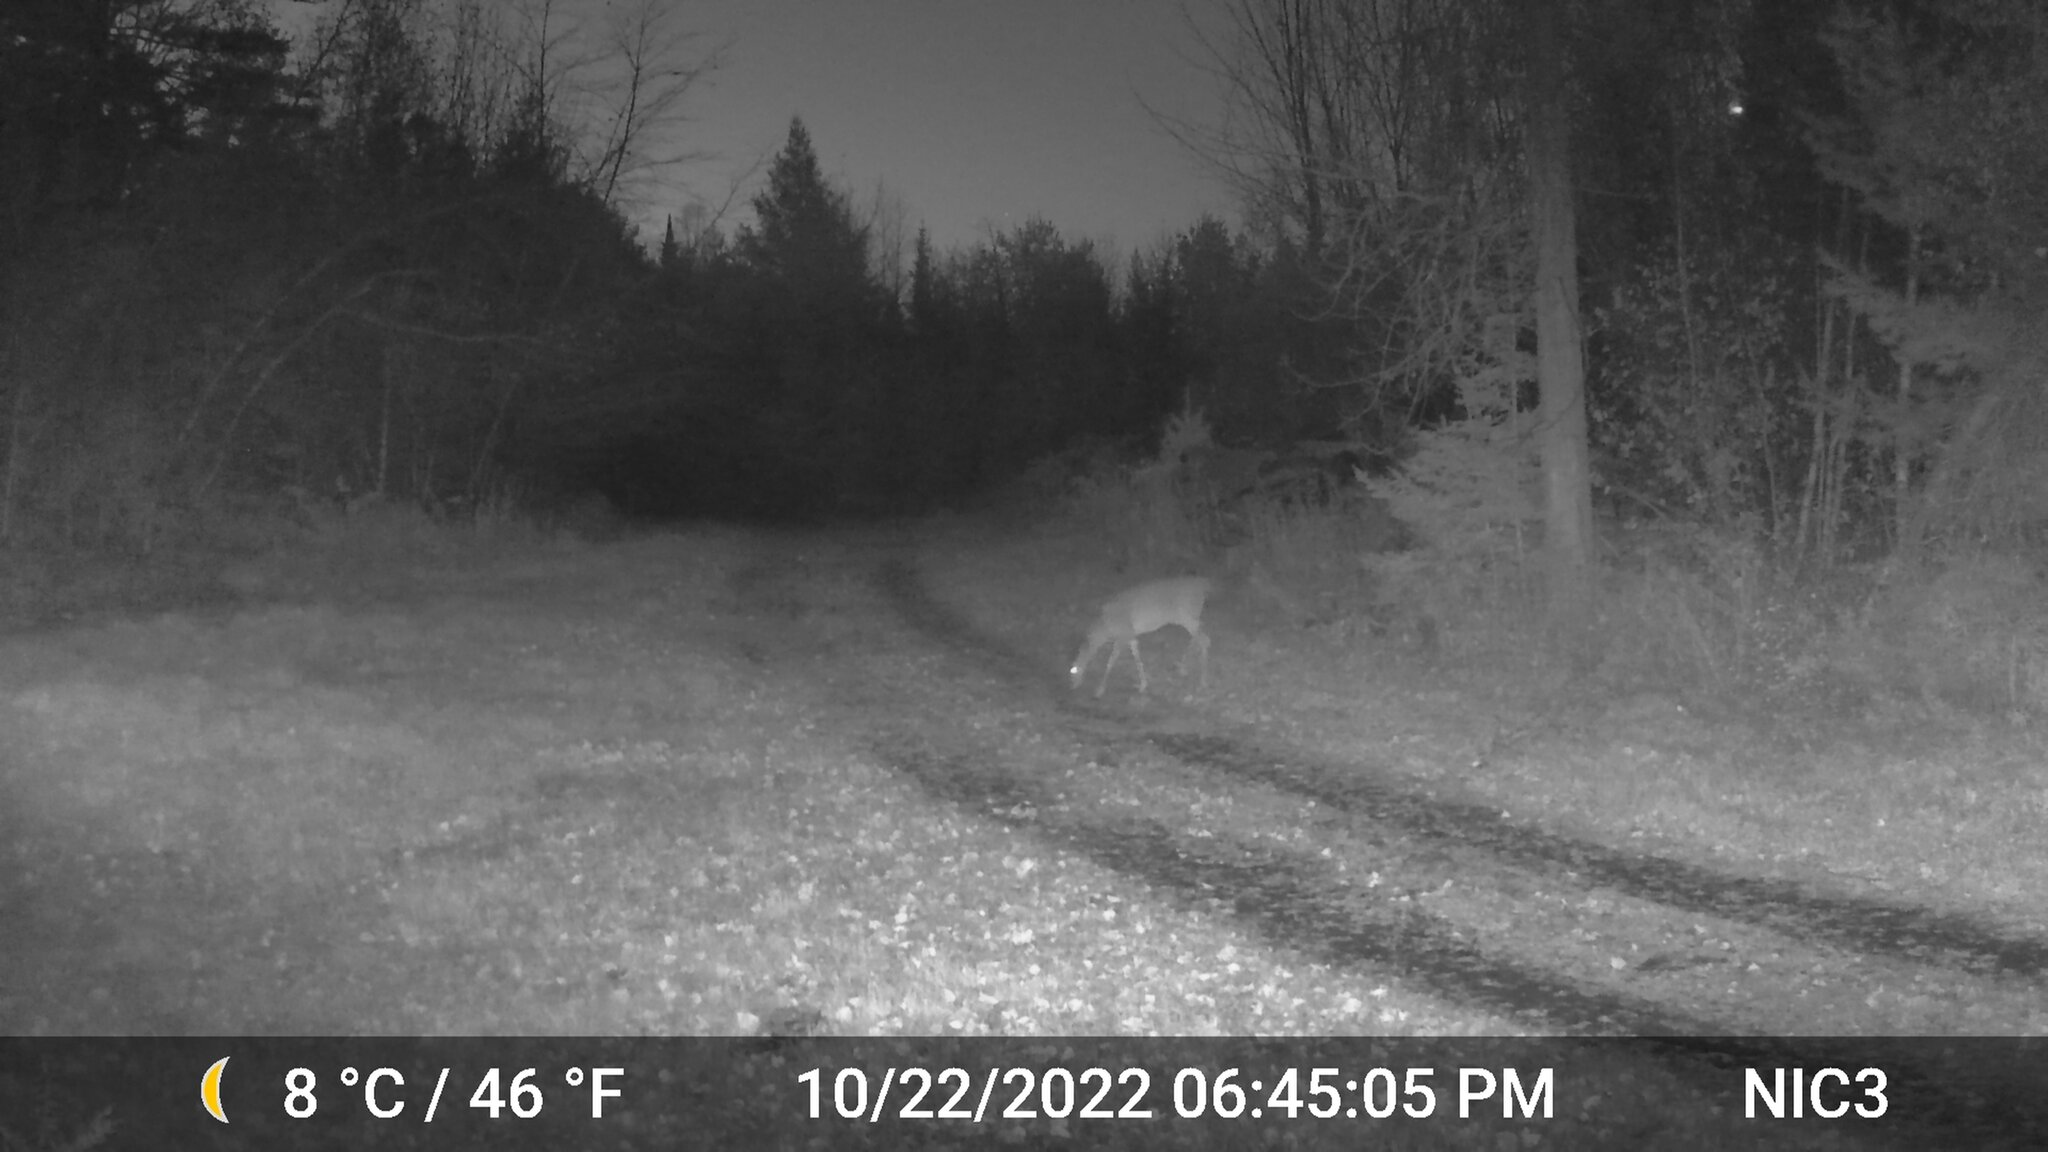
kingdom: Animalia
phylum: Chordata
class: Mammalia
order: Artiodactyla
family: Cervidae
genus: Odocoileus
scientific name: Odocoileus virginianus
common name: White-tailed deer
